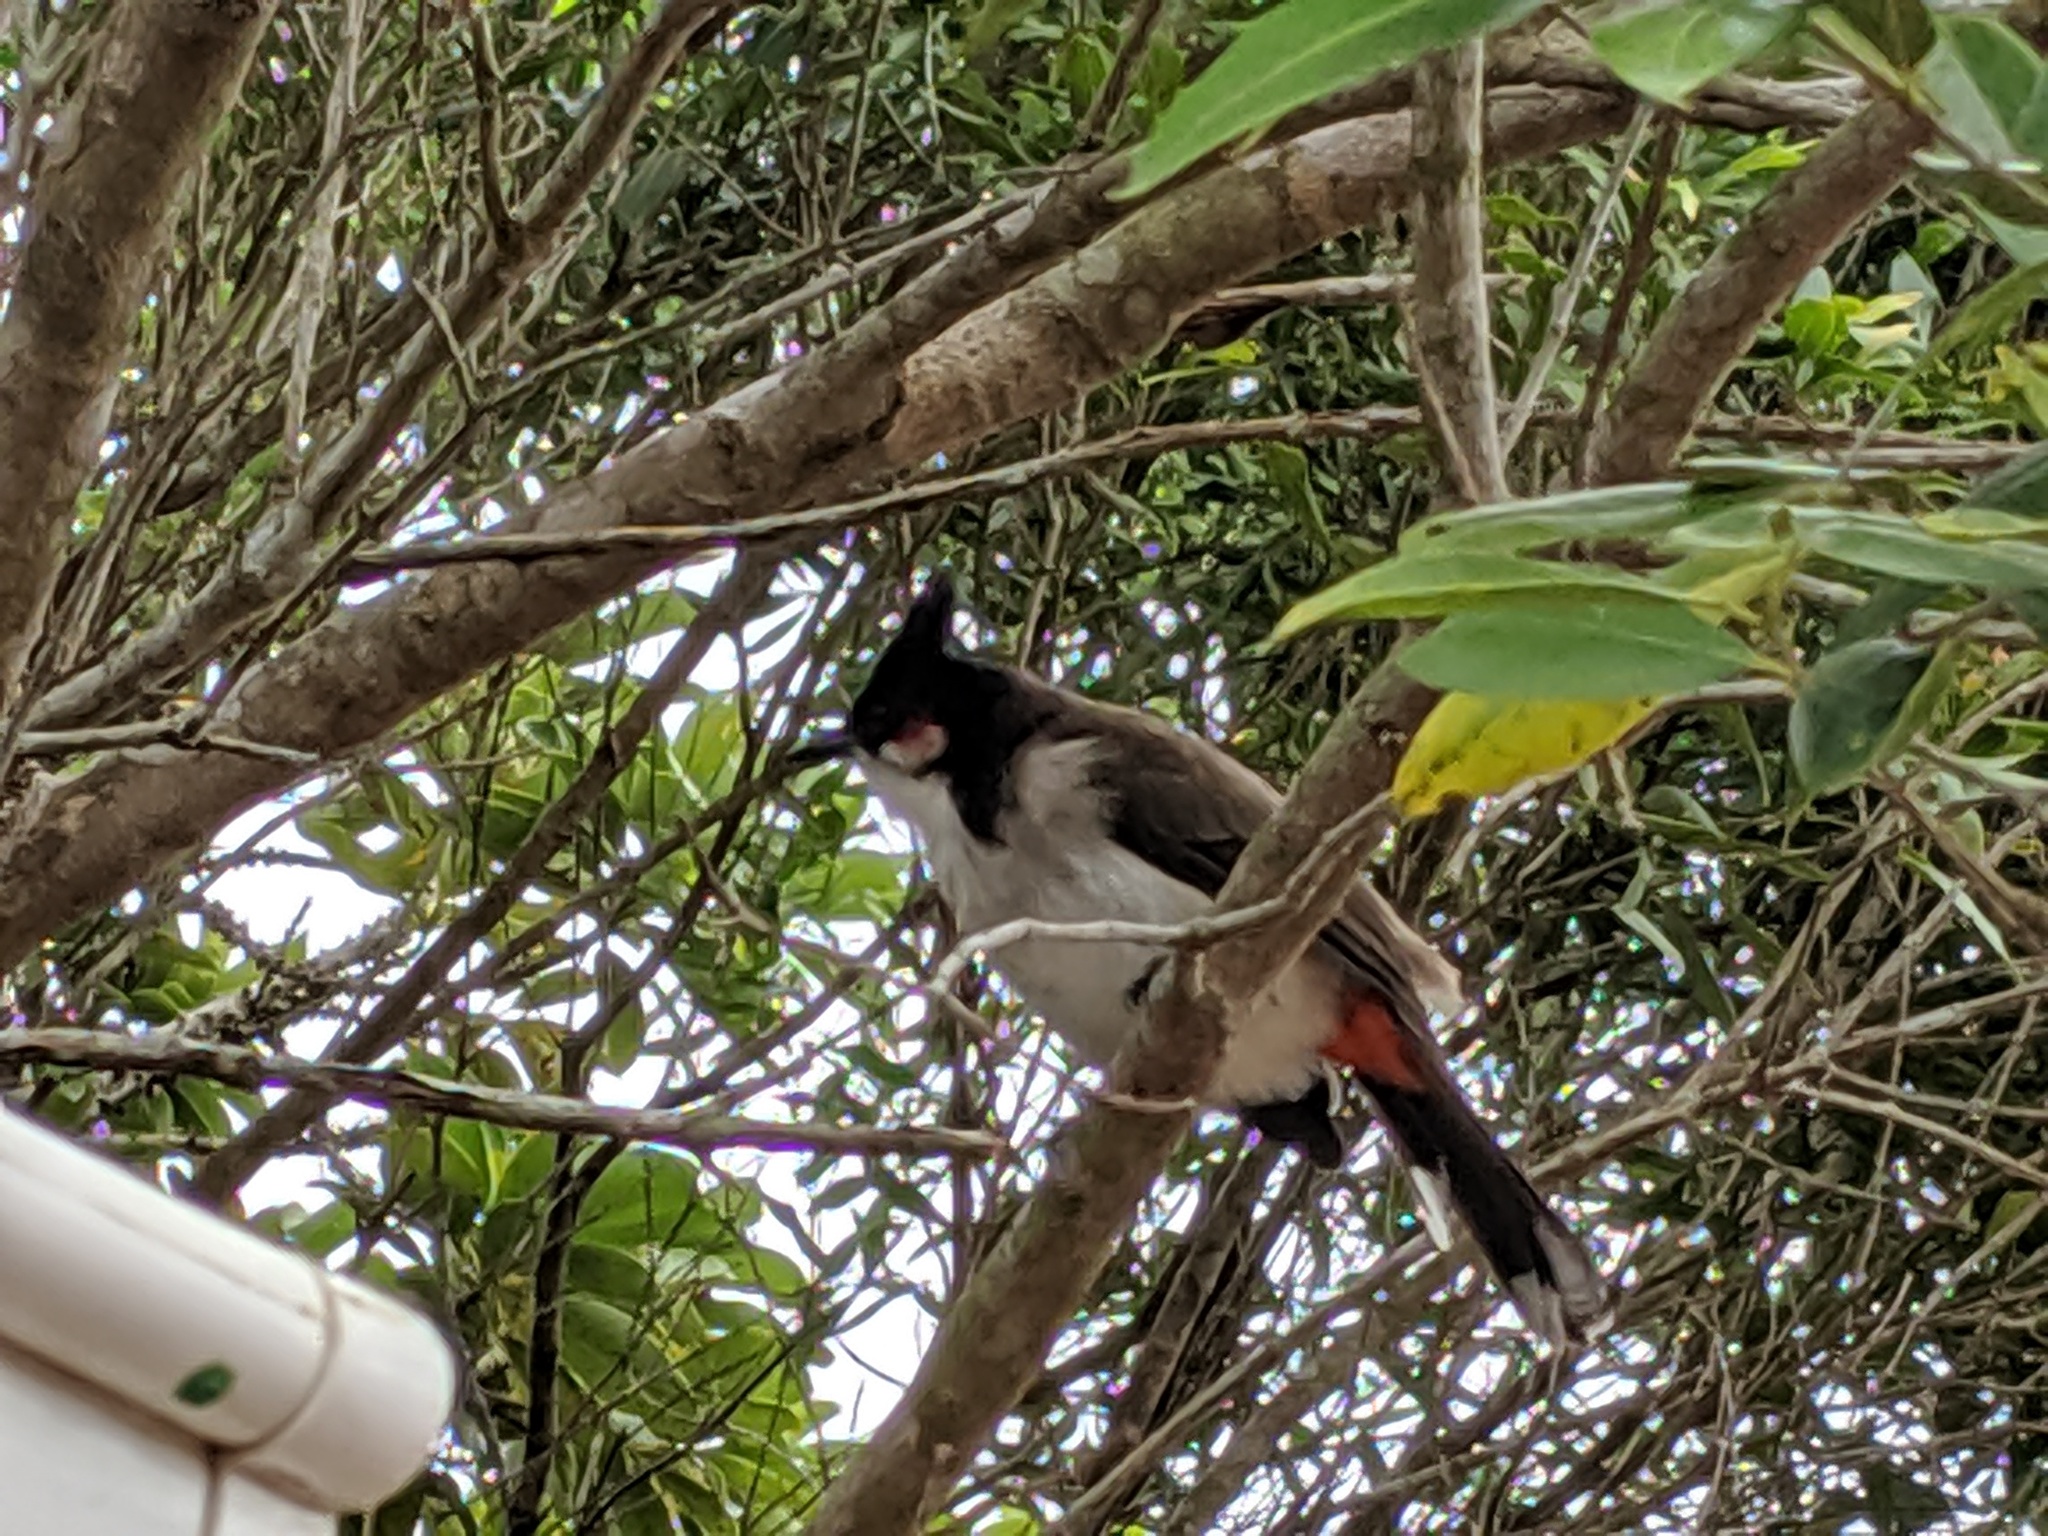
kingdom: Animalia
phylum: Chordata
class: Aves
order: Passeriformes
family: Pycnonotidae
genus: Pycnonotus
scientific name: Pycnonotus jocosus
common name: Red-whiskered bulbul
